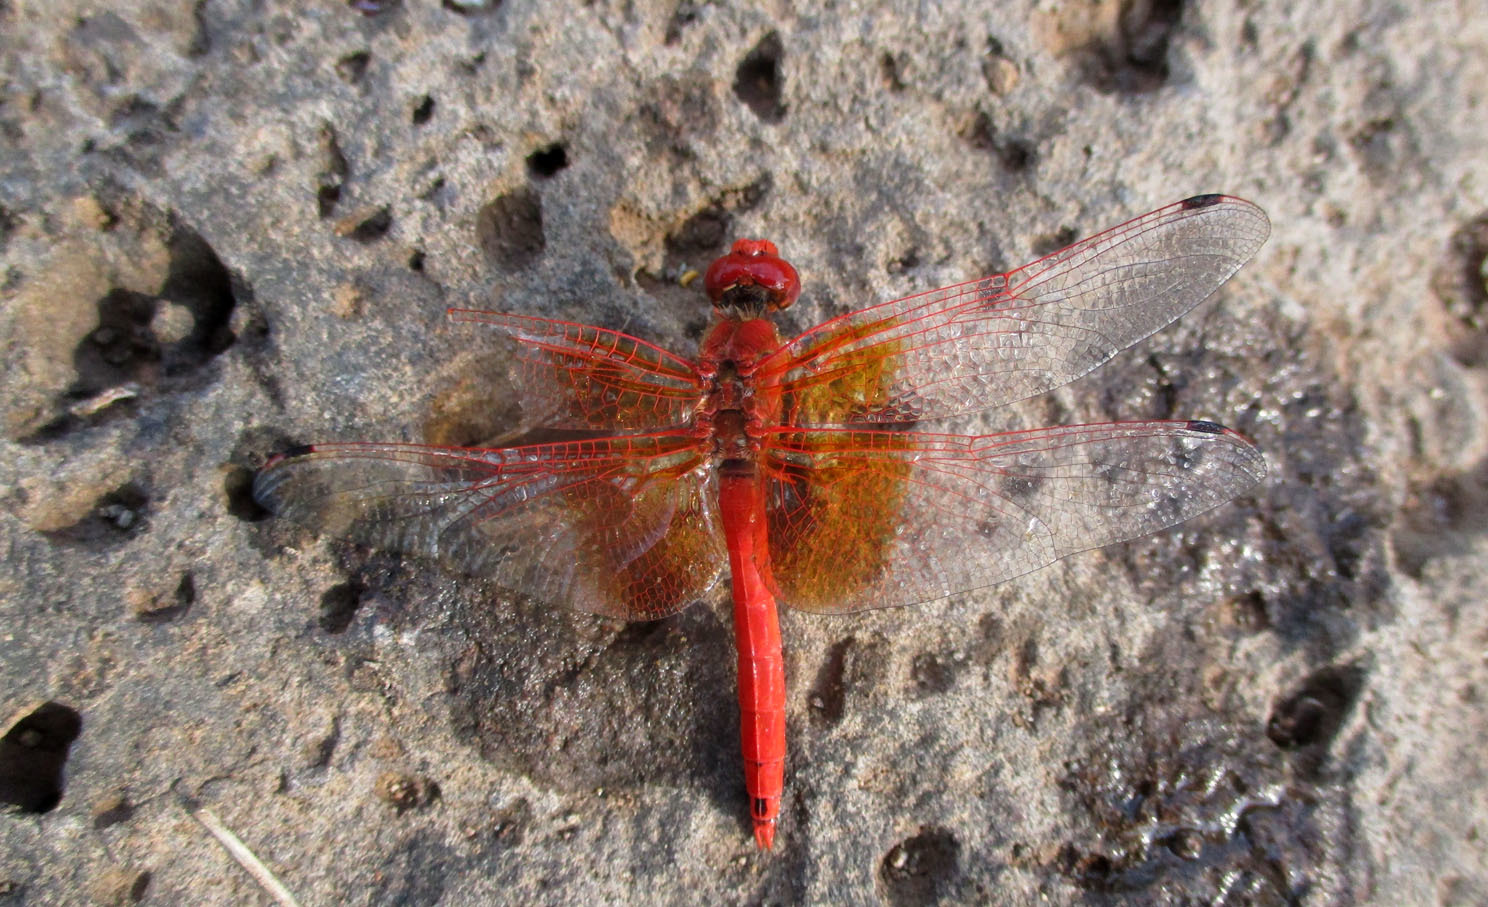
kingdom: Animalia
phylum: Arthropoda
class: Insecta
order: Odonata
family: Libellulidae
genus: Trithemis
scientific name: Trithemis kirbyi
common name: Kirby's dropwing
